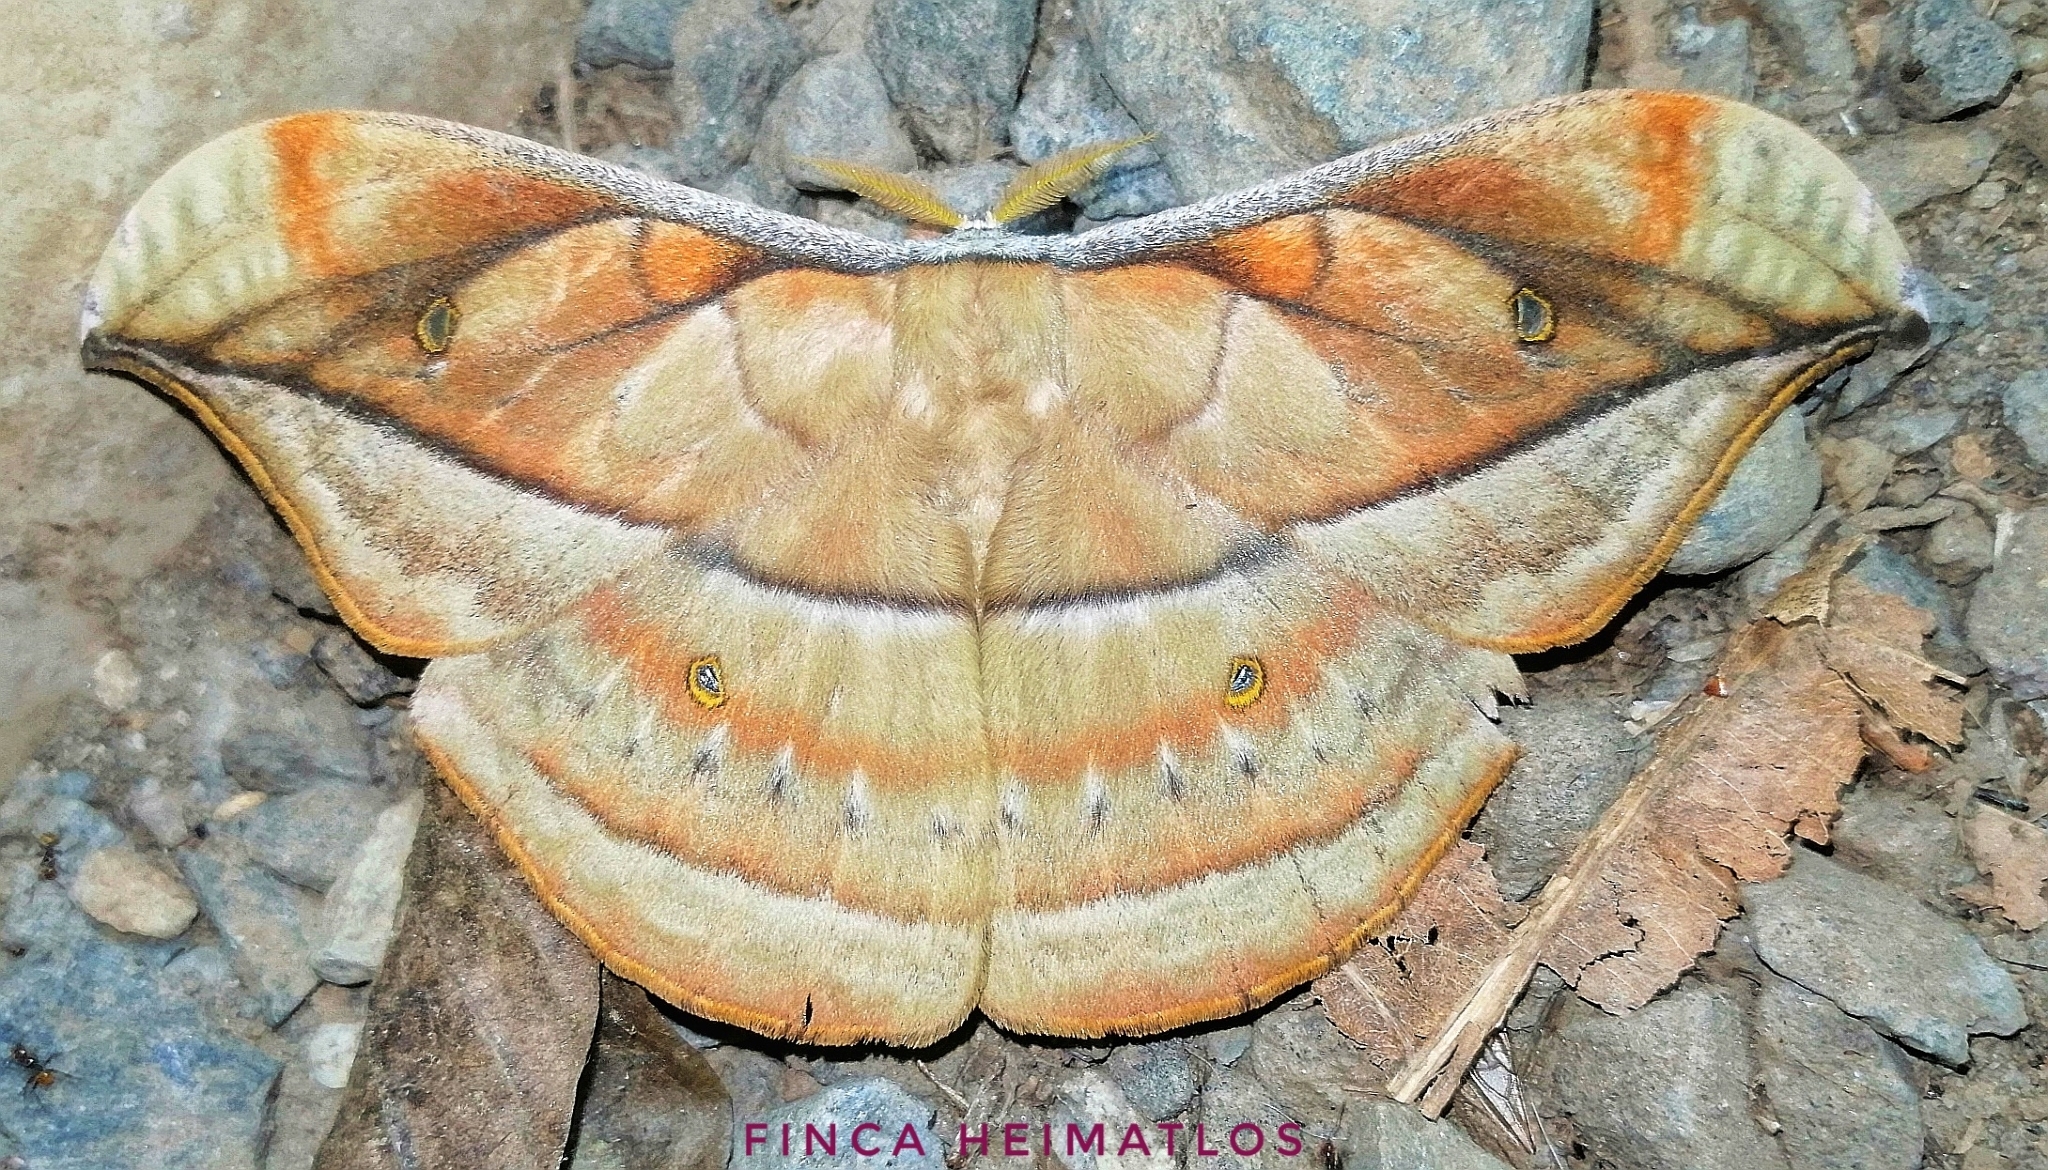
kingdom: Animalia
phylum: Arthropoda
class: Insecta
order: Lepidoptera
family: Saturniidae
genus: Copaxa
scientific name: Copaxa decrescens
